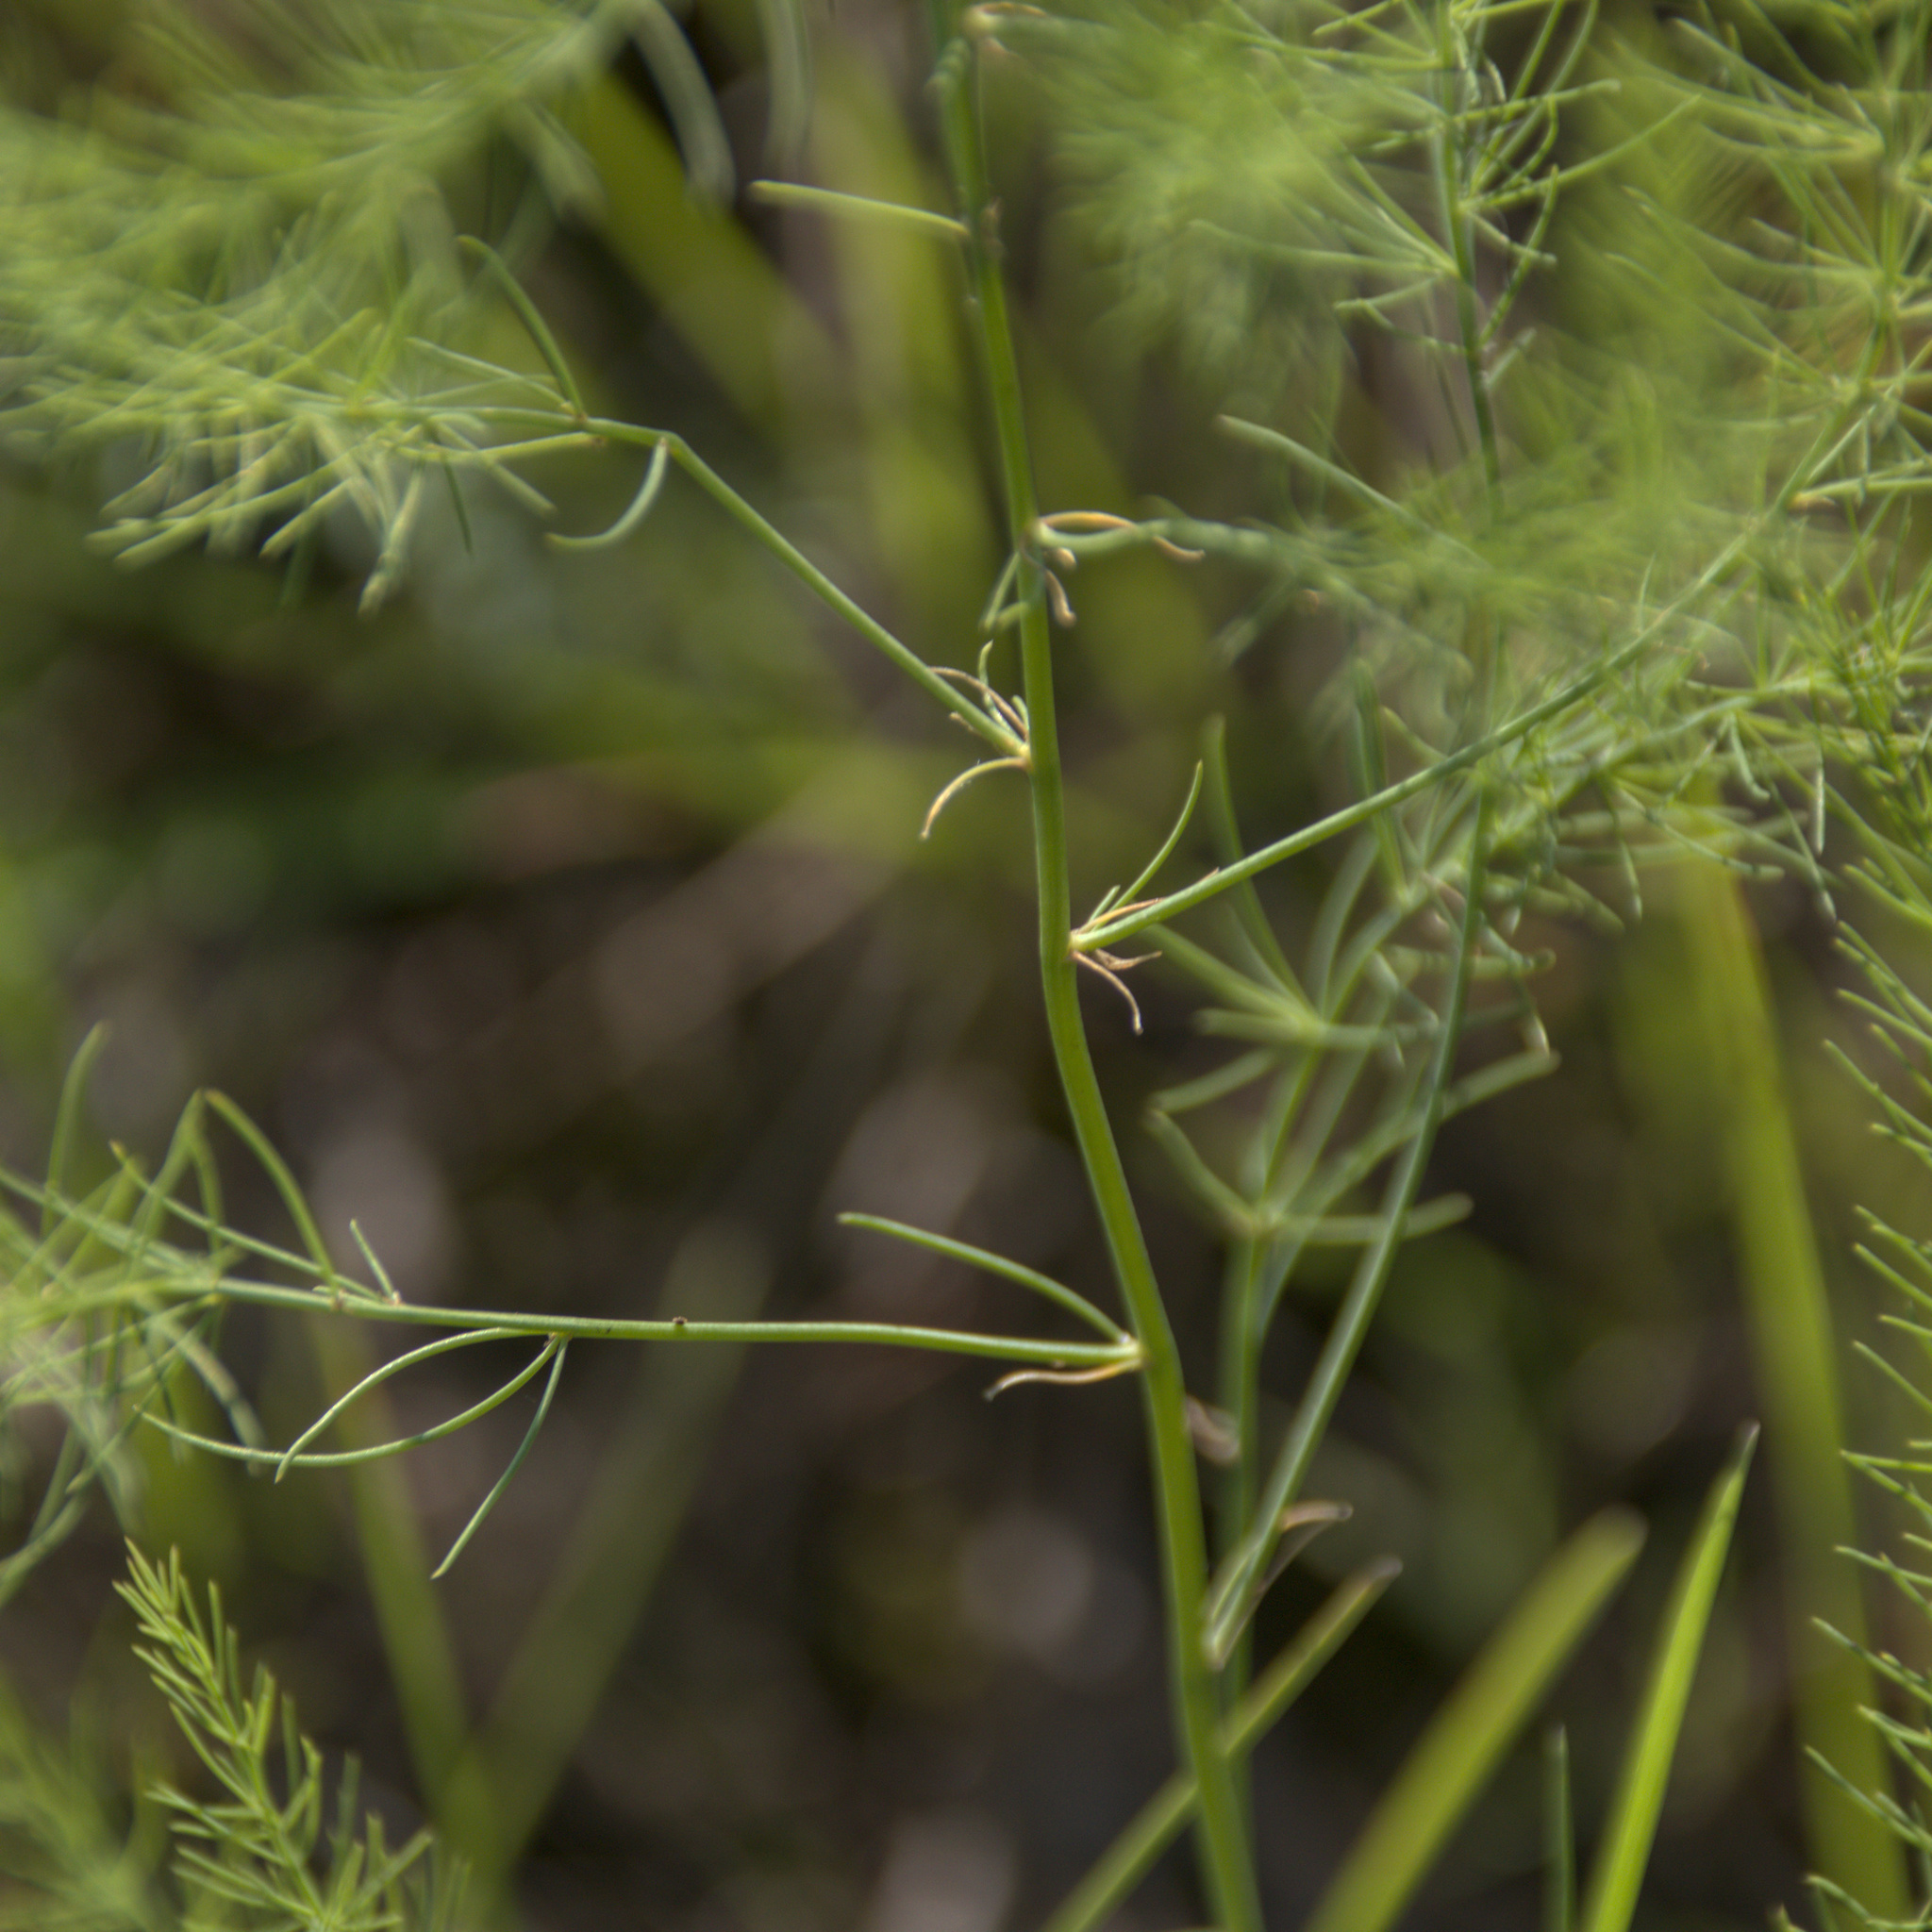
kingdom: Plantae
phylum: Tracheophyta
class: Liliopsida
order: Asparagales
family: Asparagaceae
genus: Asparagus
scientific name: Asparagus officinalis
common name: Garden asparagus
